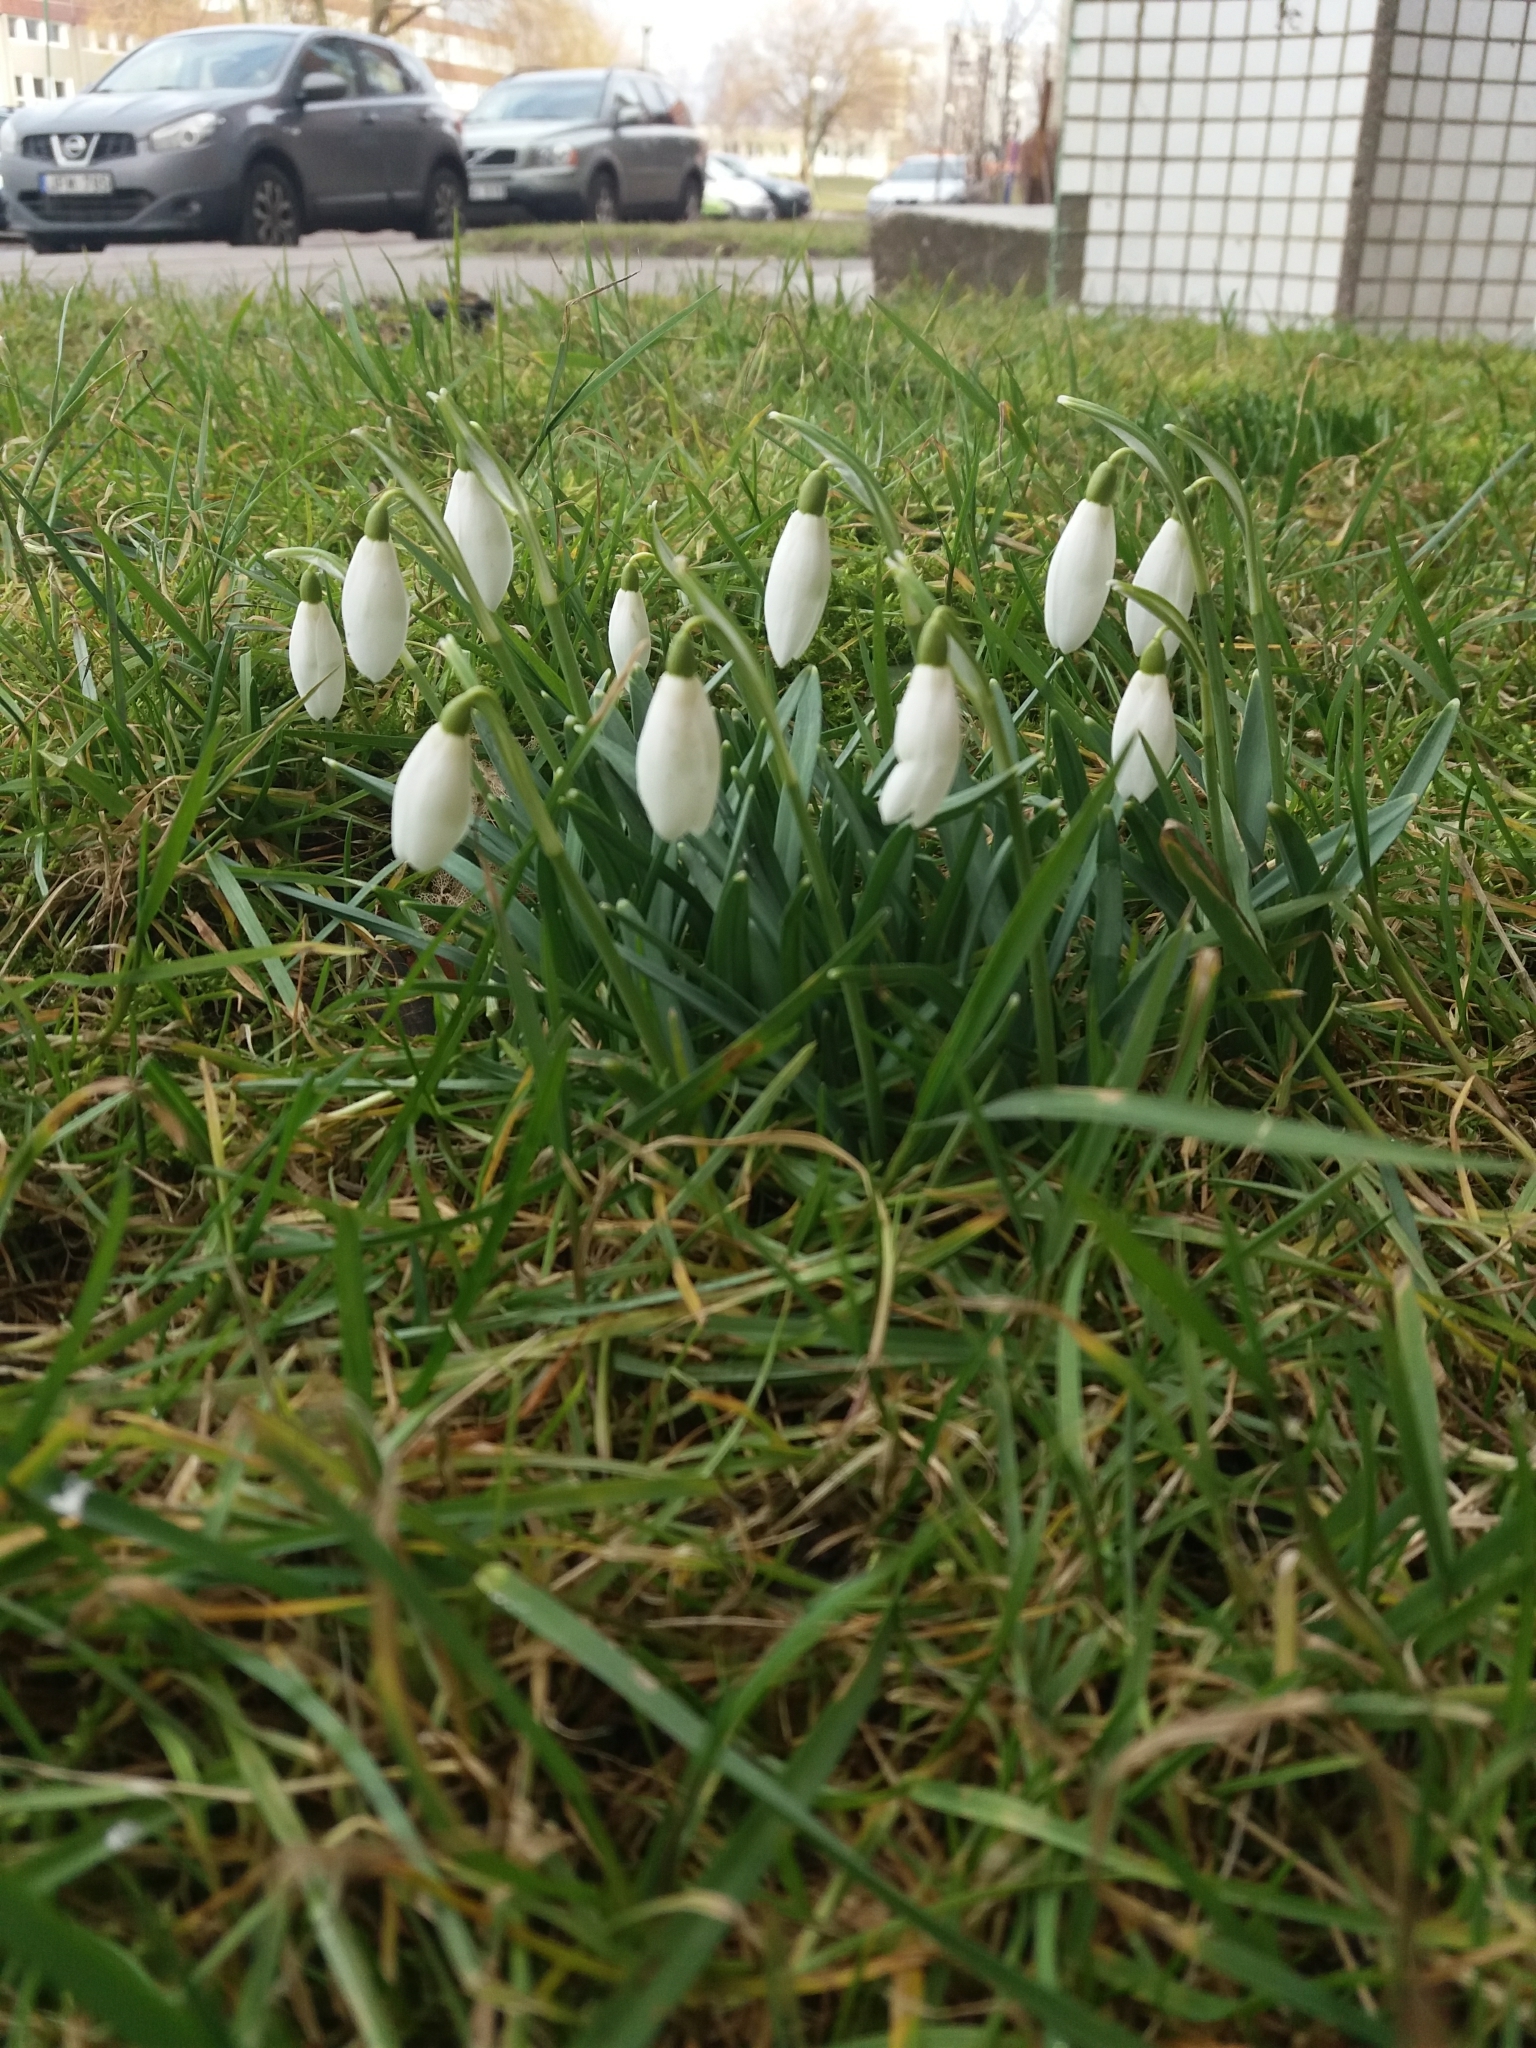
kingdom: Plantae
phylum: Tracheophyta
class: Liliopsida
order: Asparagales
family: Amaryllidaceae
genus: Galanthus
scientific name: Galanthus nivalis
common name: Snowdrop
